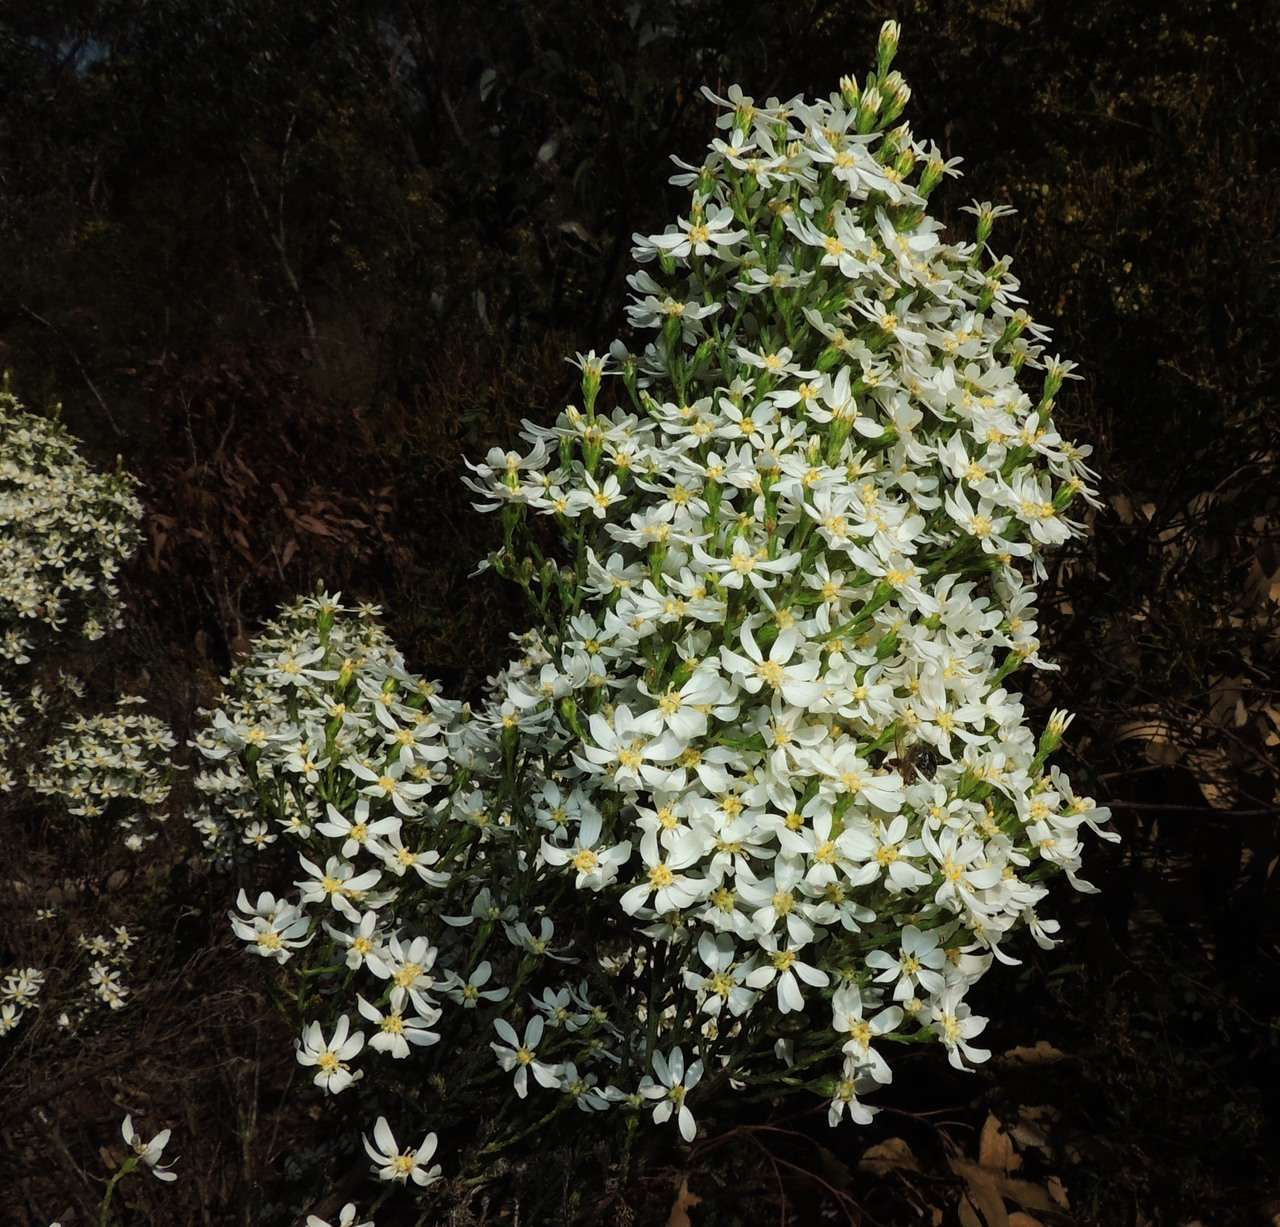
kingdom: Plantae
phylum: Tracheophyta
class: Magnoliopsida
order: Asterales
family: Asteraceae
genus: Olearia
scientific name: Olearia teretifolia
